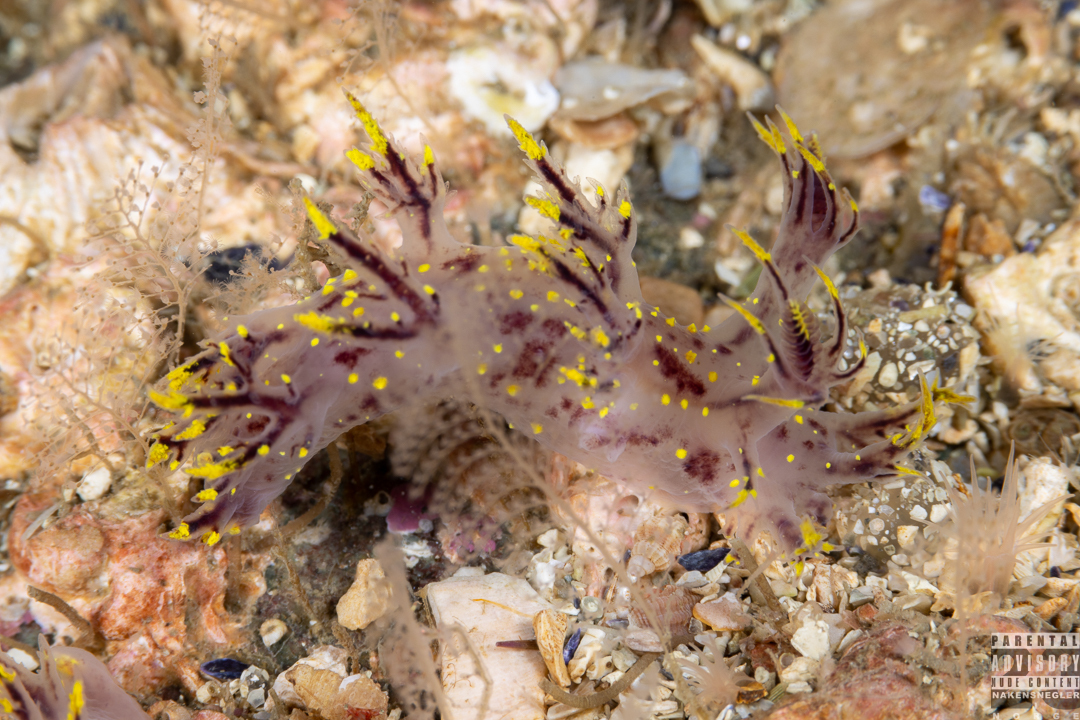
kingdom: Animalia
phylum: Mollusca
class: Gastropoda
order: Nudibranchia
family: Dendronotidae
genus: Dendronotus
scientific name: Dendronotus arcticus
